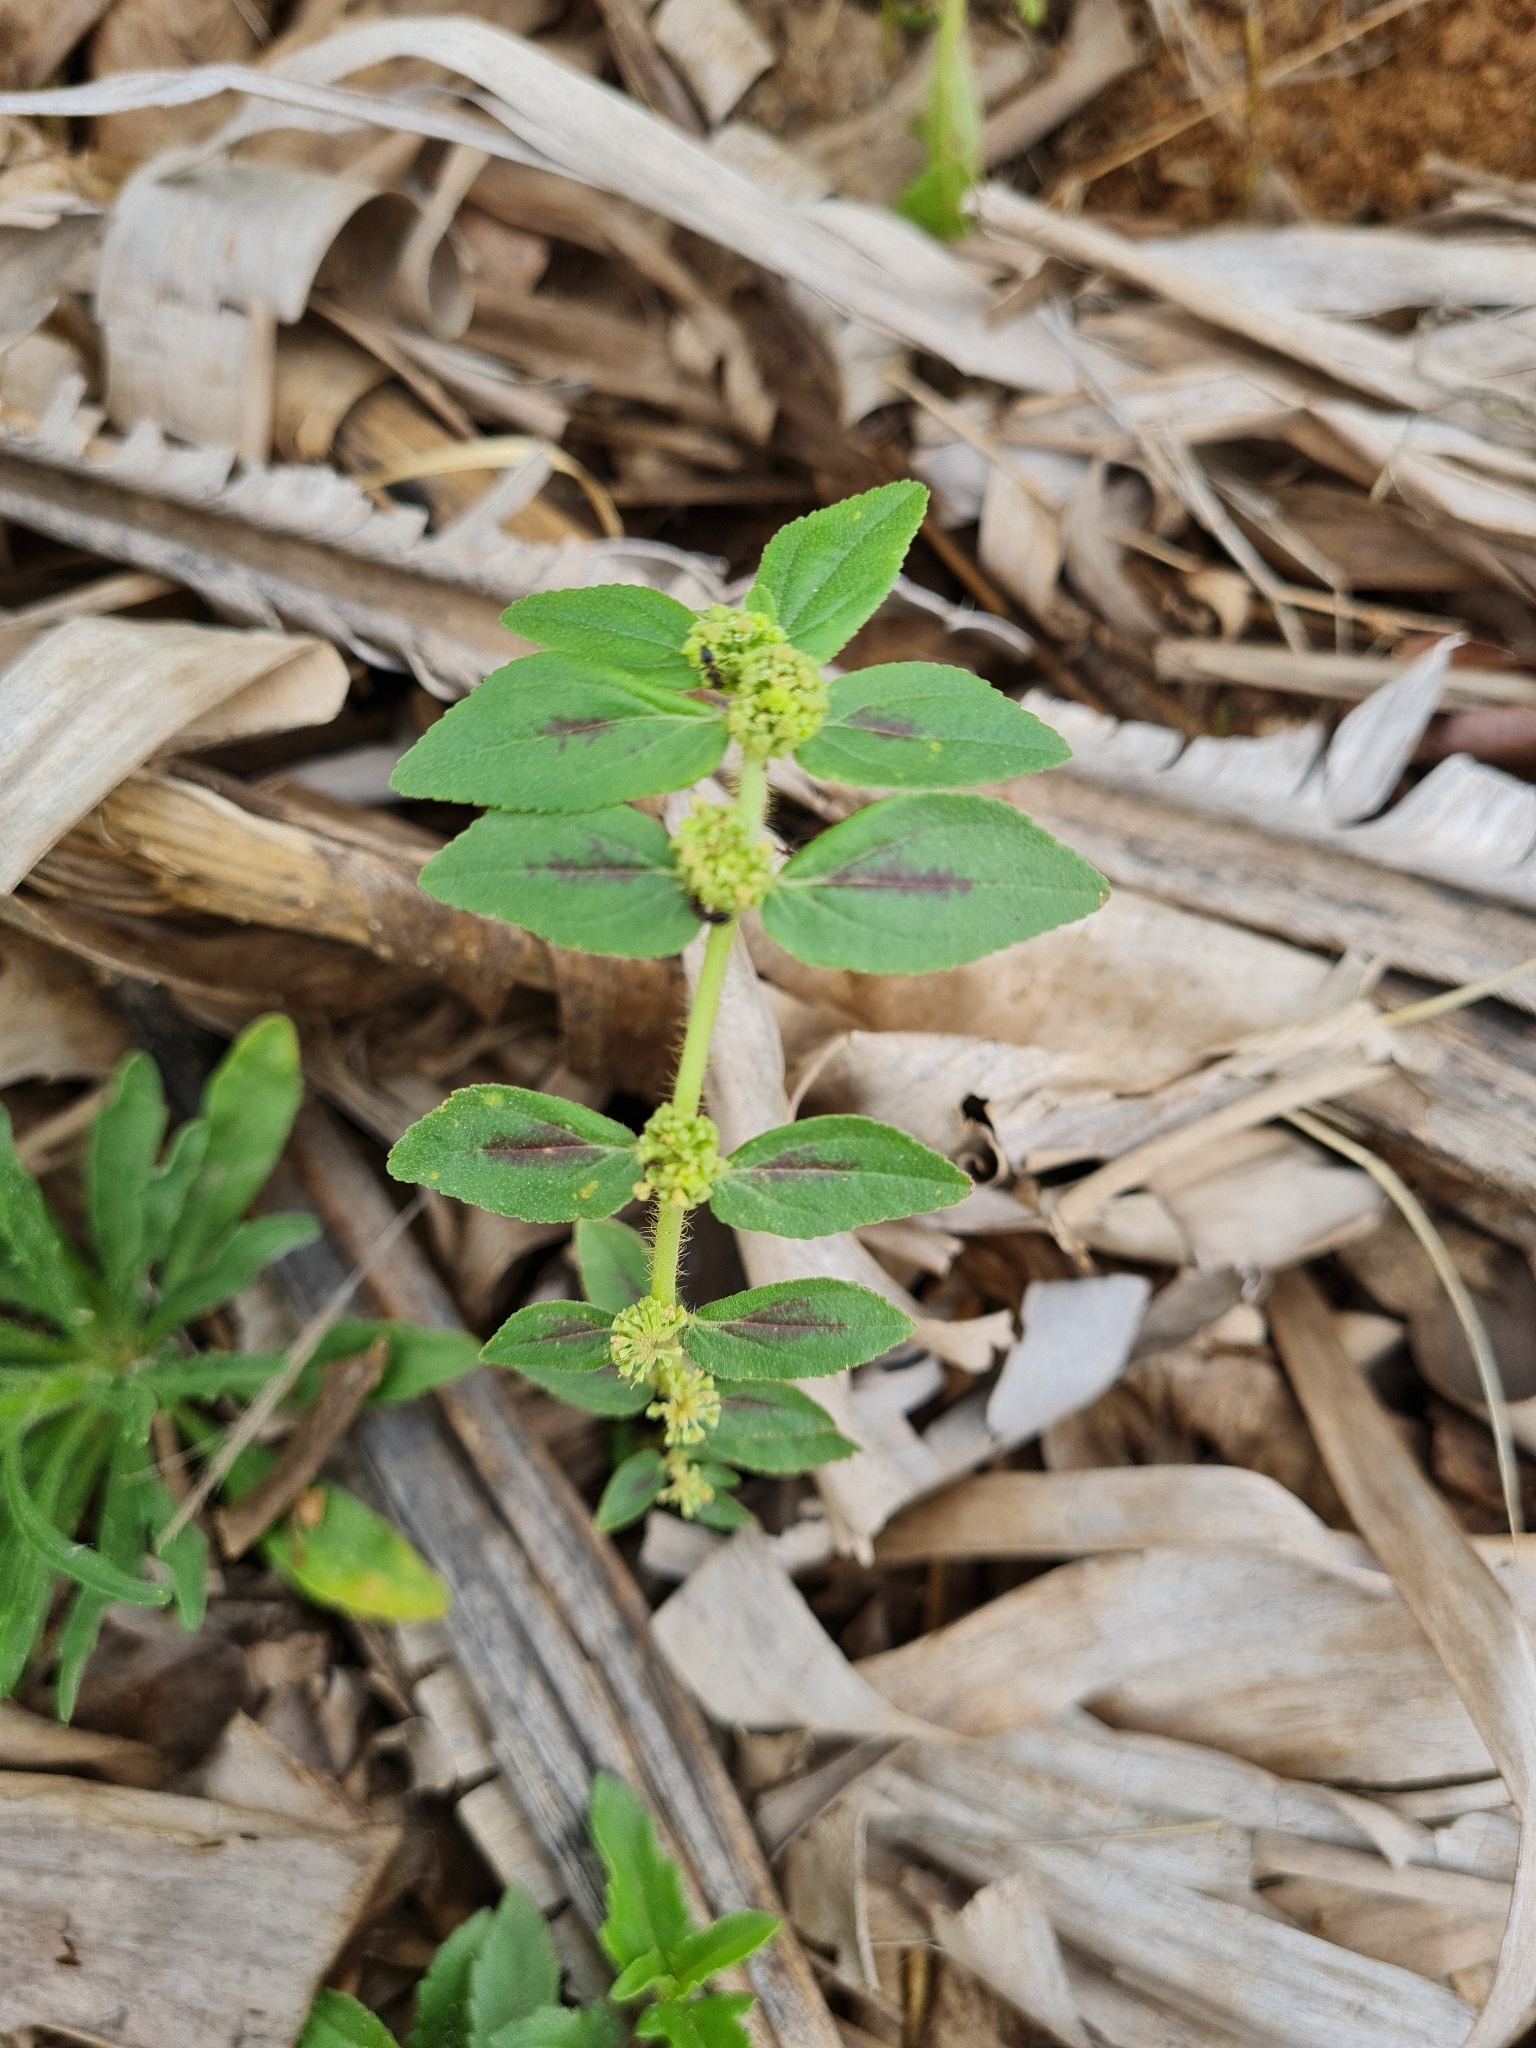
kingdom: Plantae
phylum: Tracheophyta
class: Magnoliopsida
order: Malpighiales
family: Euphorbiaceae
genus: Euphorbia
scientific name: Euphorbia hirta
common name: Pillpod sandmat
